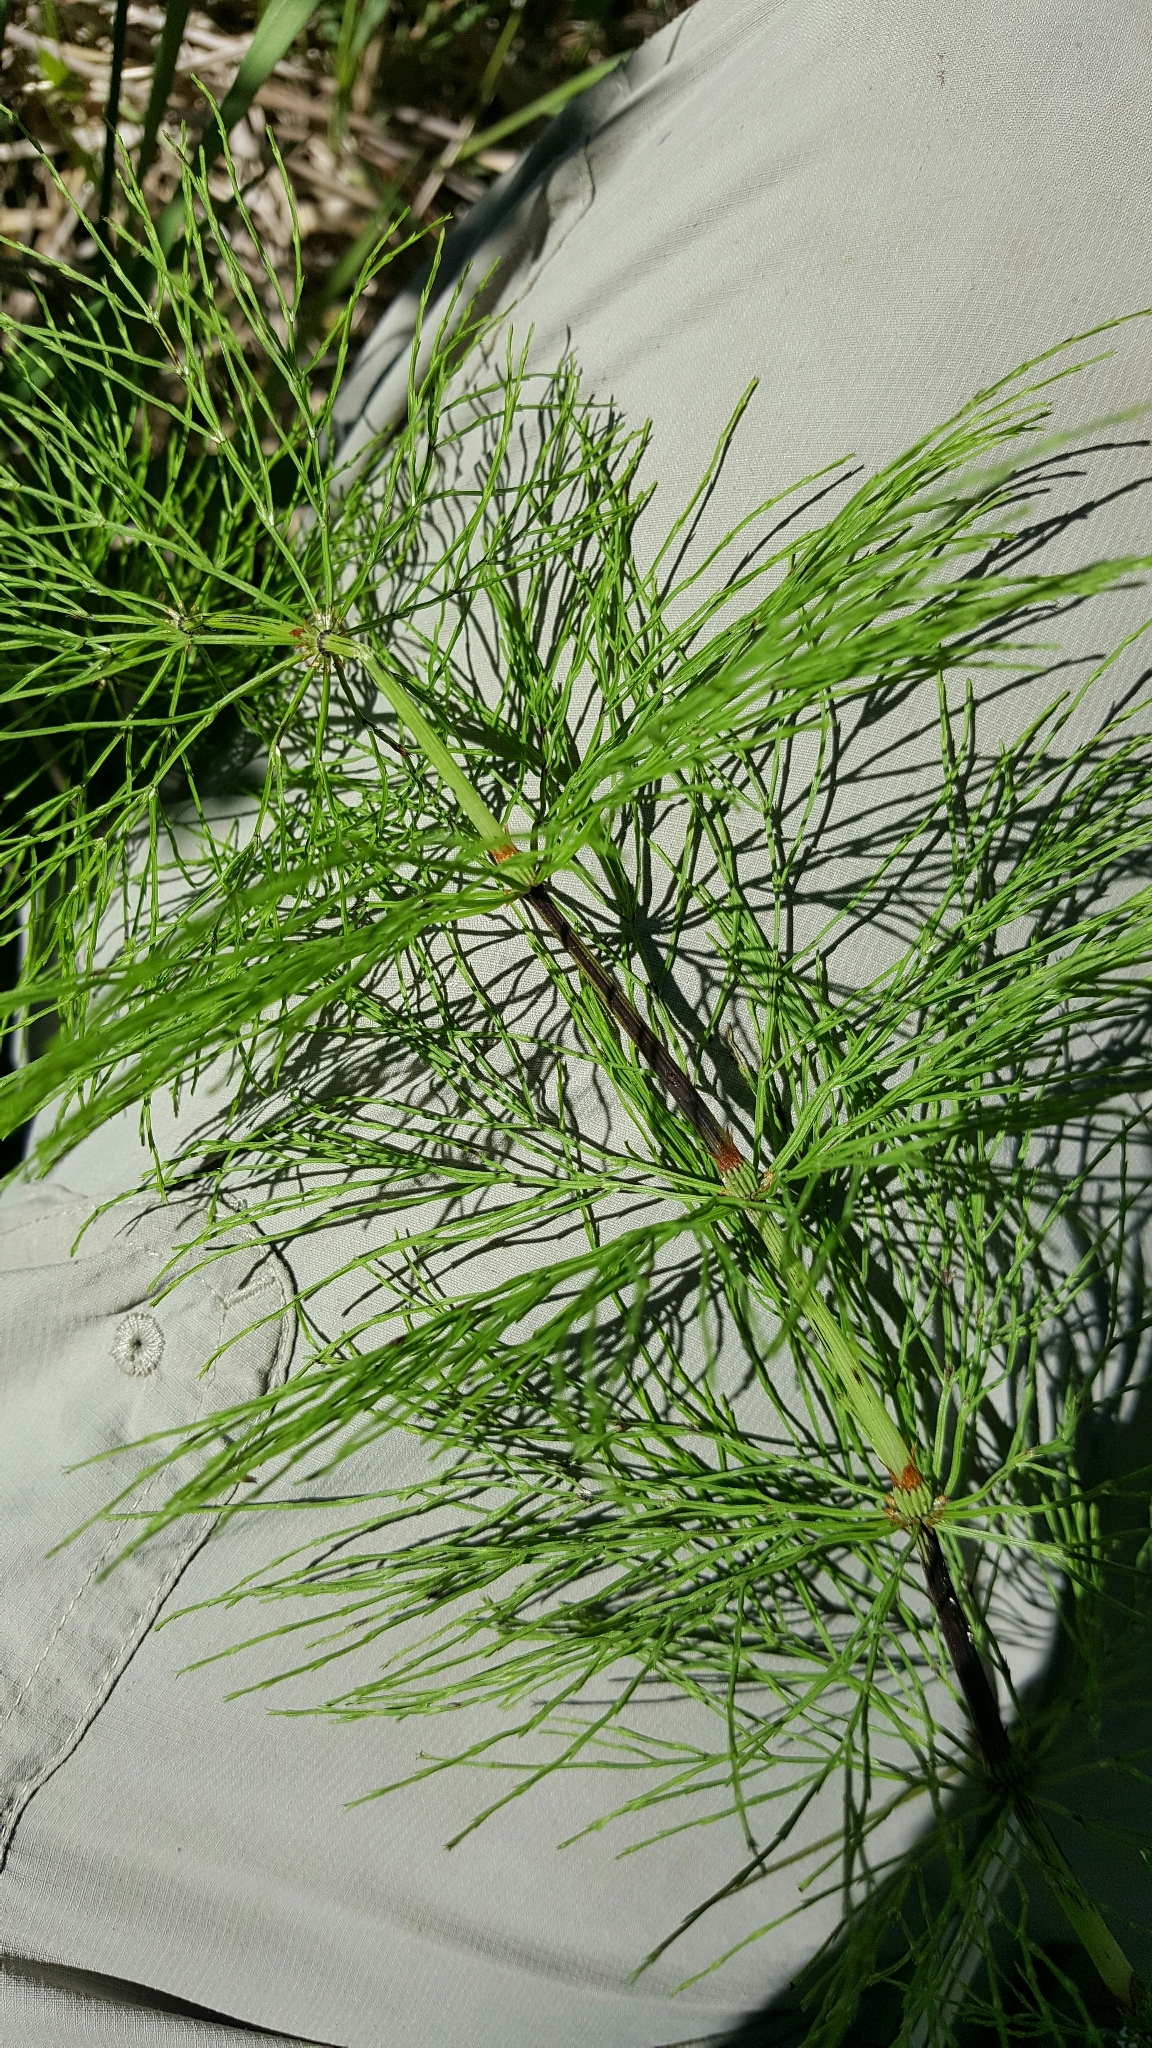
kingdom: Plantae
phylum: Tracheophyta
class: Polypodiopsida
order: Equisetales
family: Equisetaceae
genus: Equisetum
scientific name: Equisetum sylvaticum
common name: Wood horsetail
